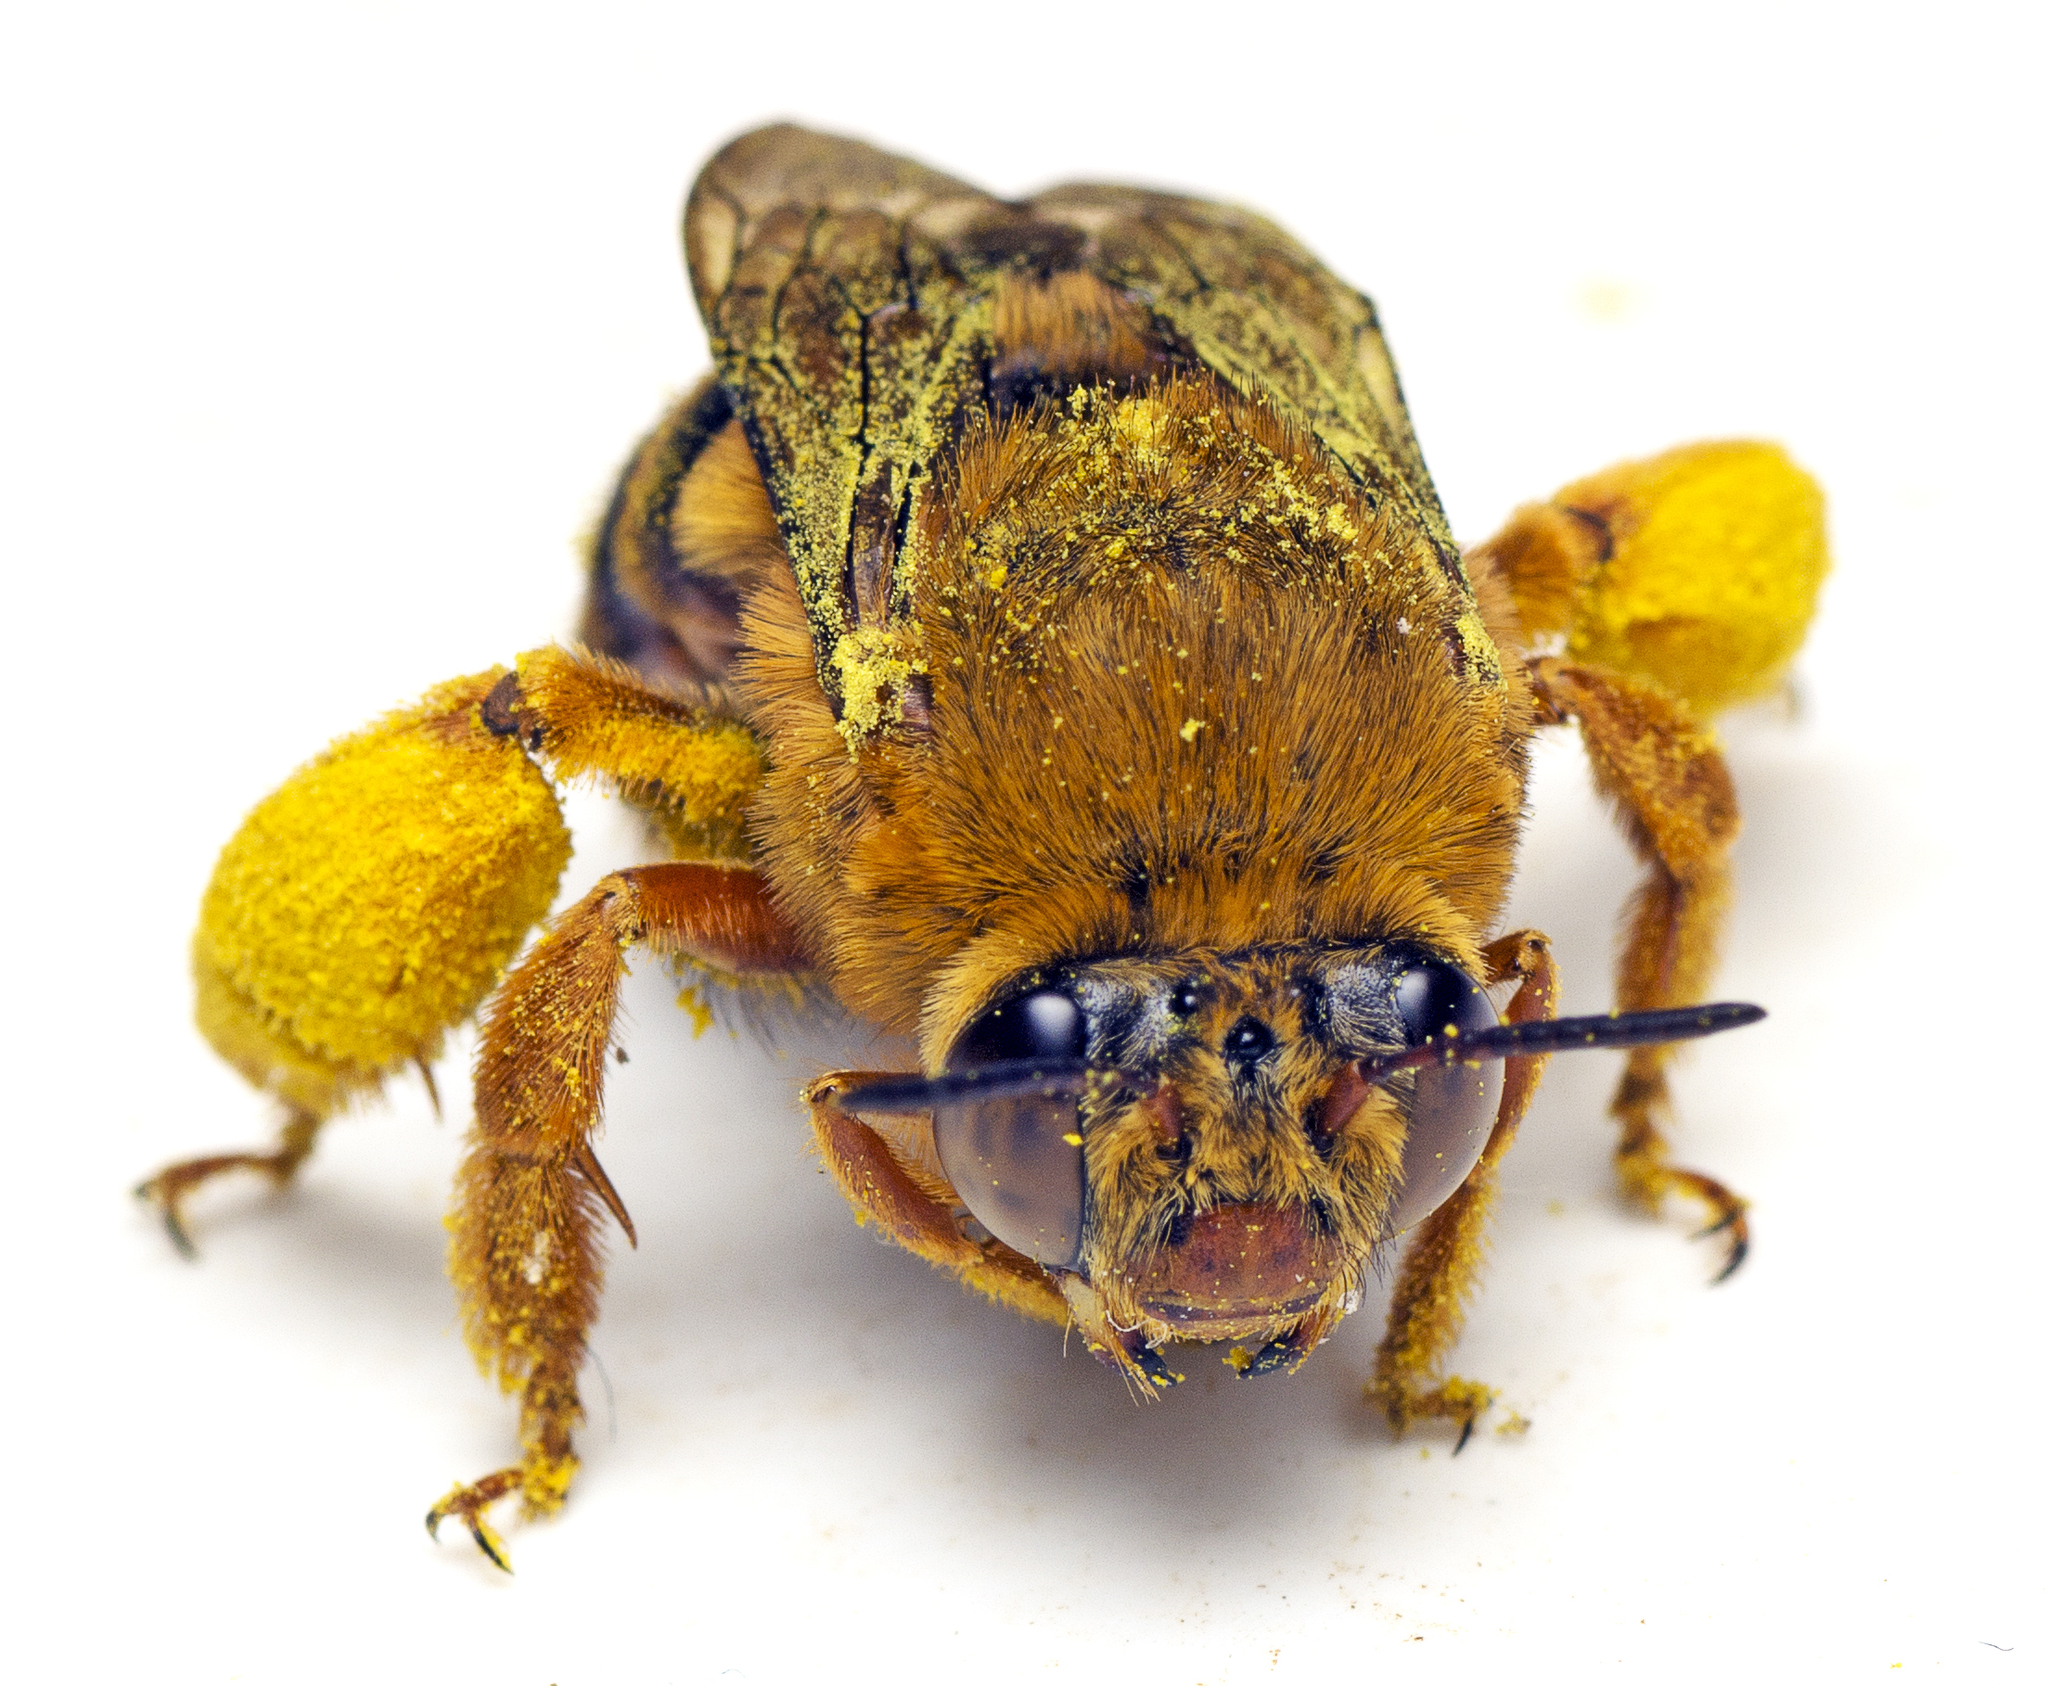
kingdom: Animalia
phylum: Arthropoda
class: Insecta
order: Hymenoptera
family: Apidae
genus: Amegilla
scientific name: Amegilla bombiformis
